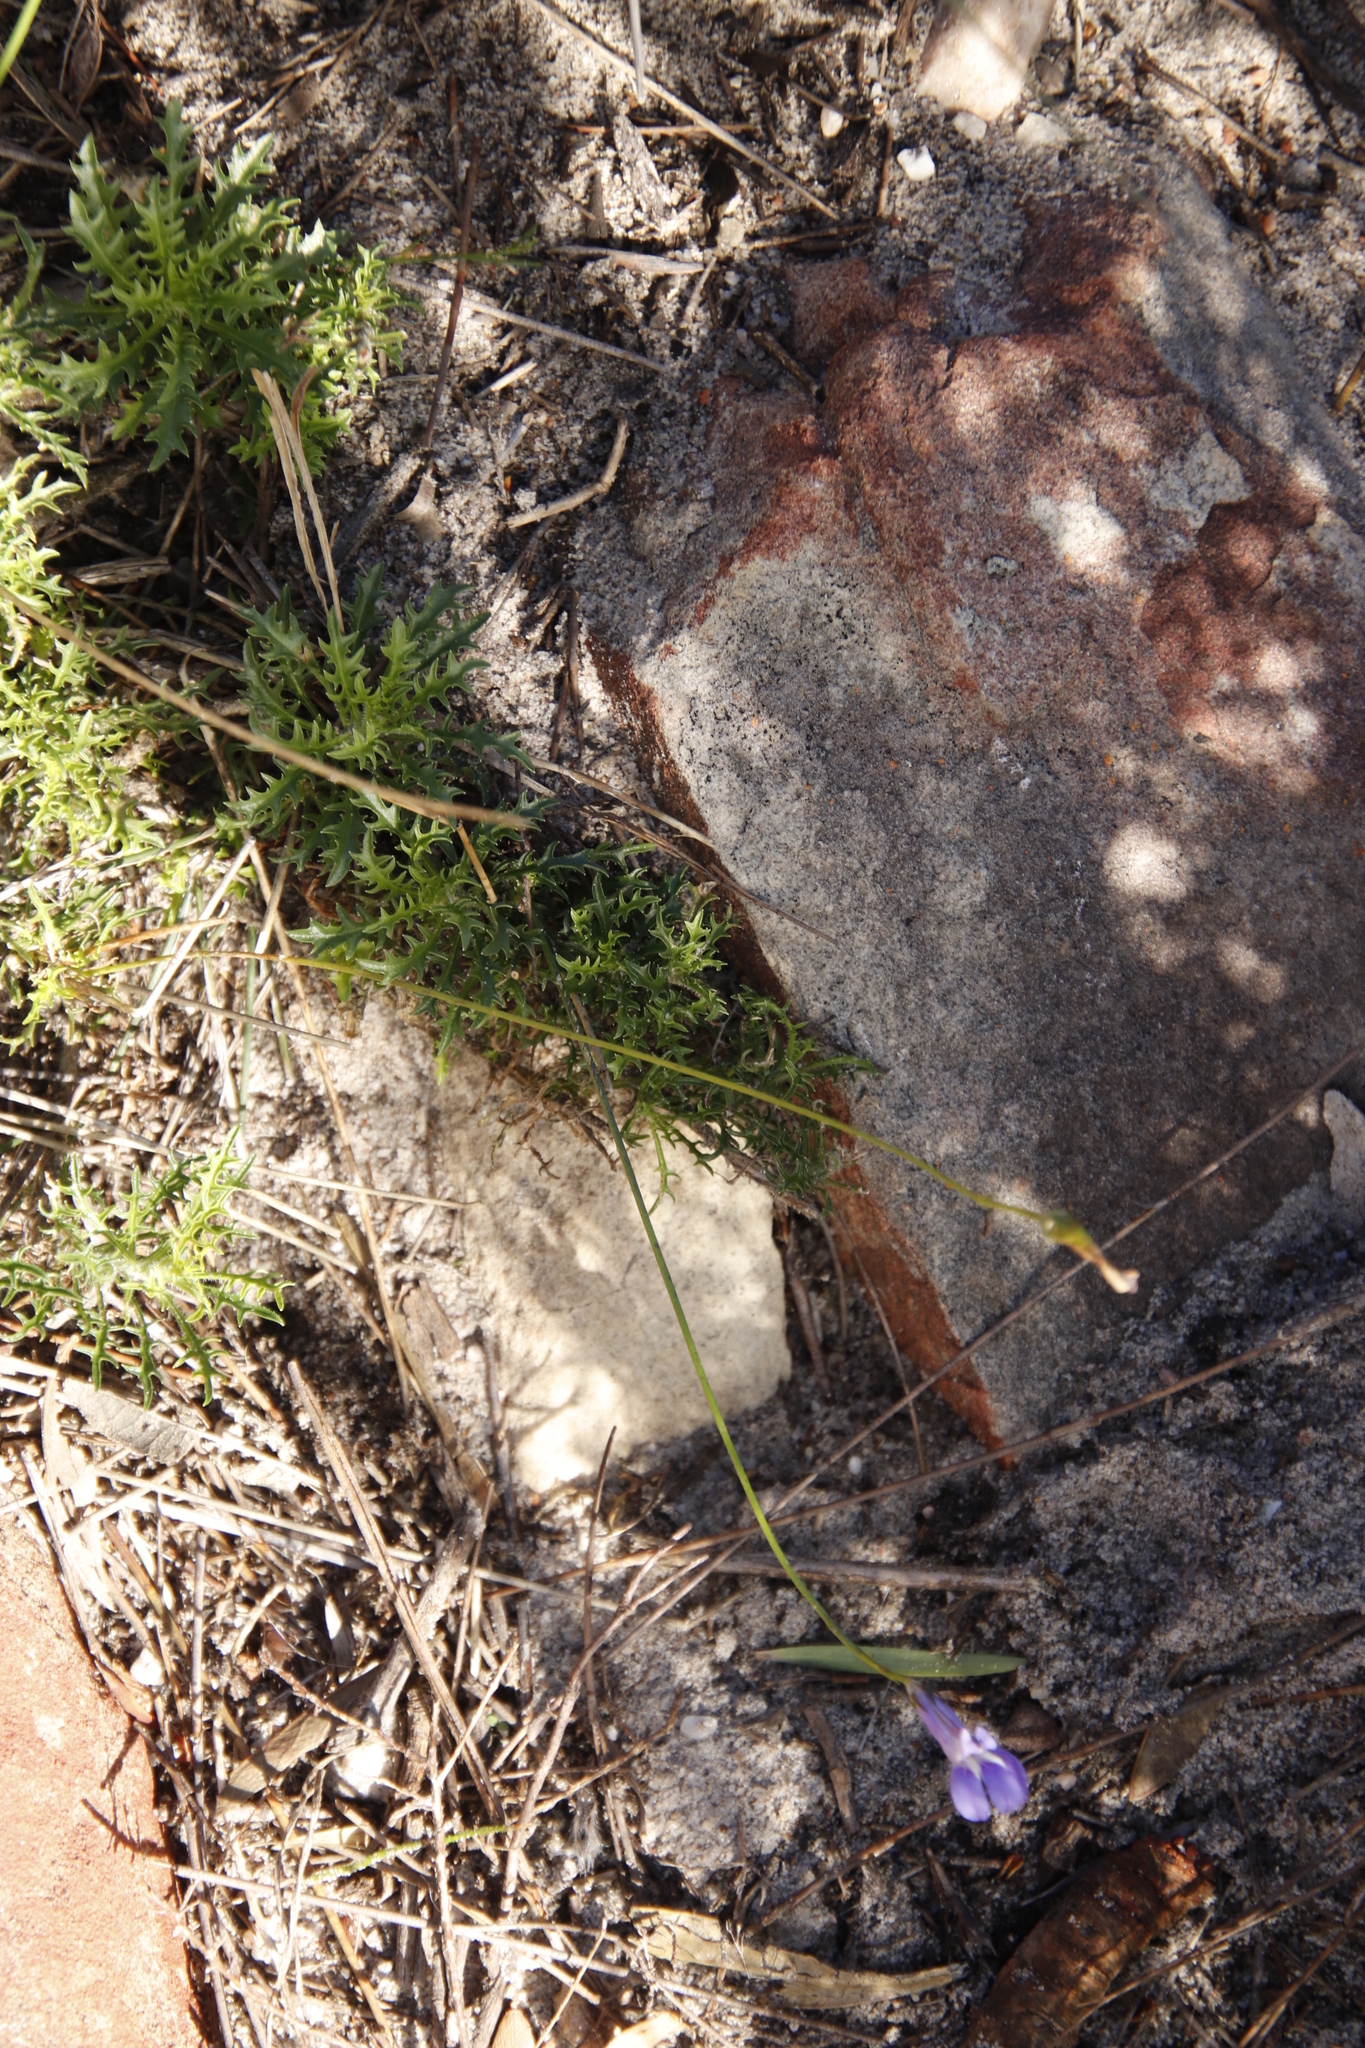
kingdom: Plantae
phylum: Tracheophyta
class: Magnoliopsida
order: Asterales
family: Campanulaceae
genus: Lobelia
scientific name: Lobelia coronopifolia
